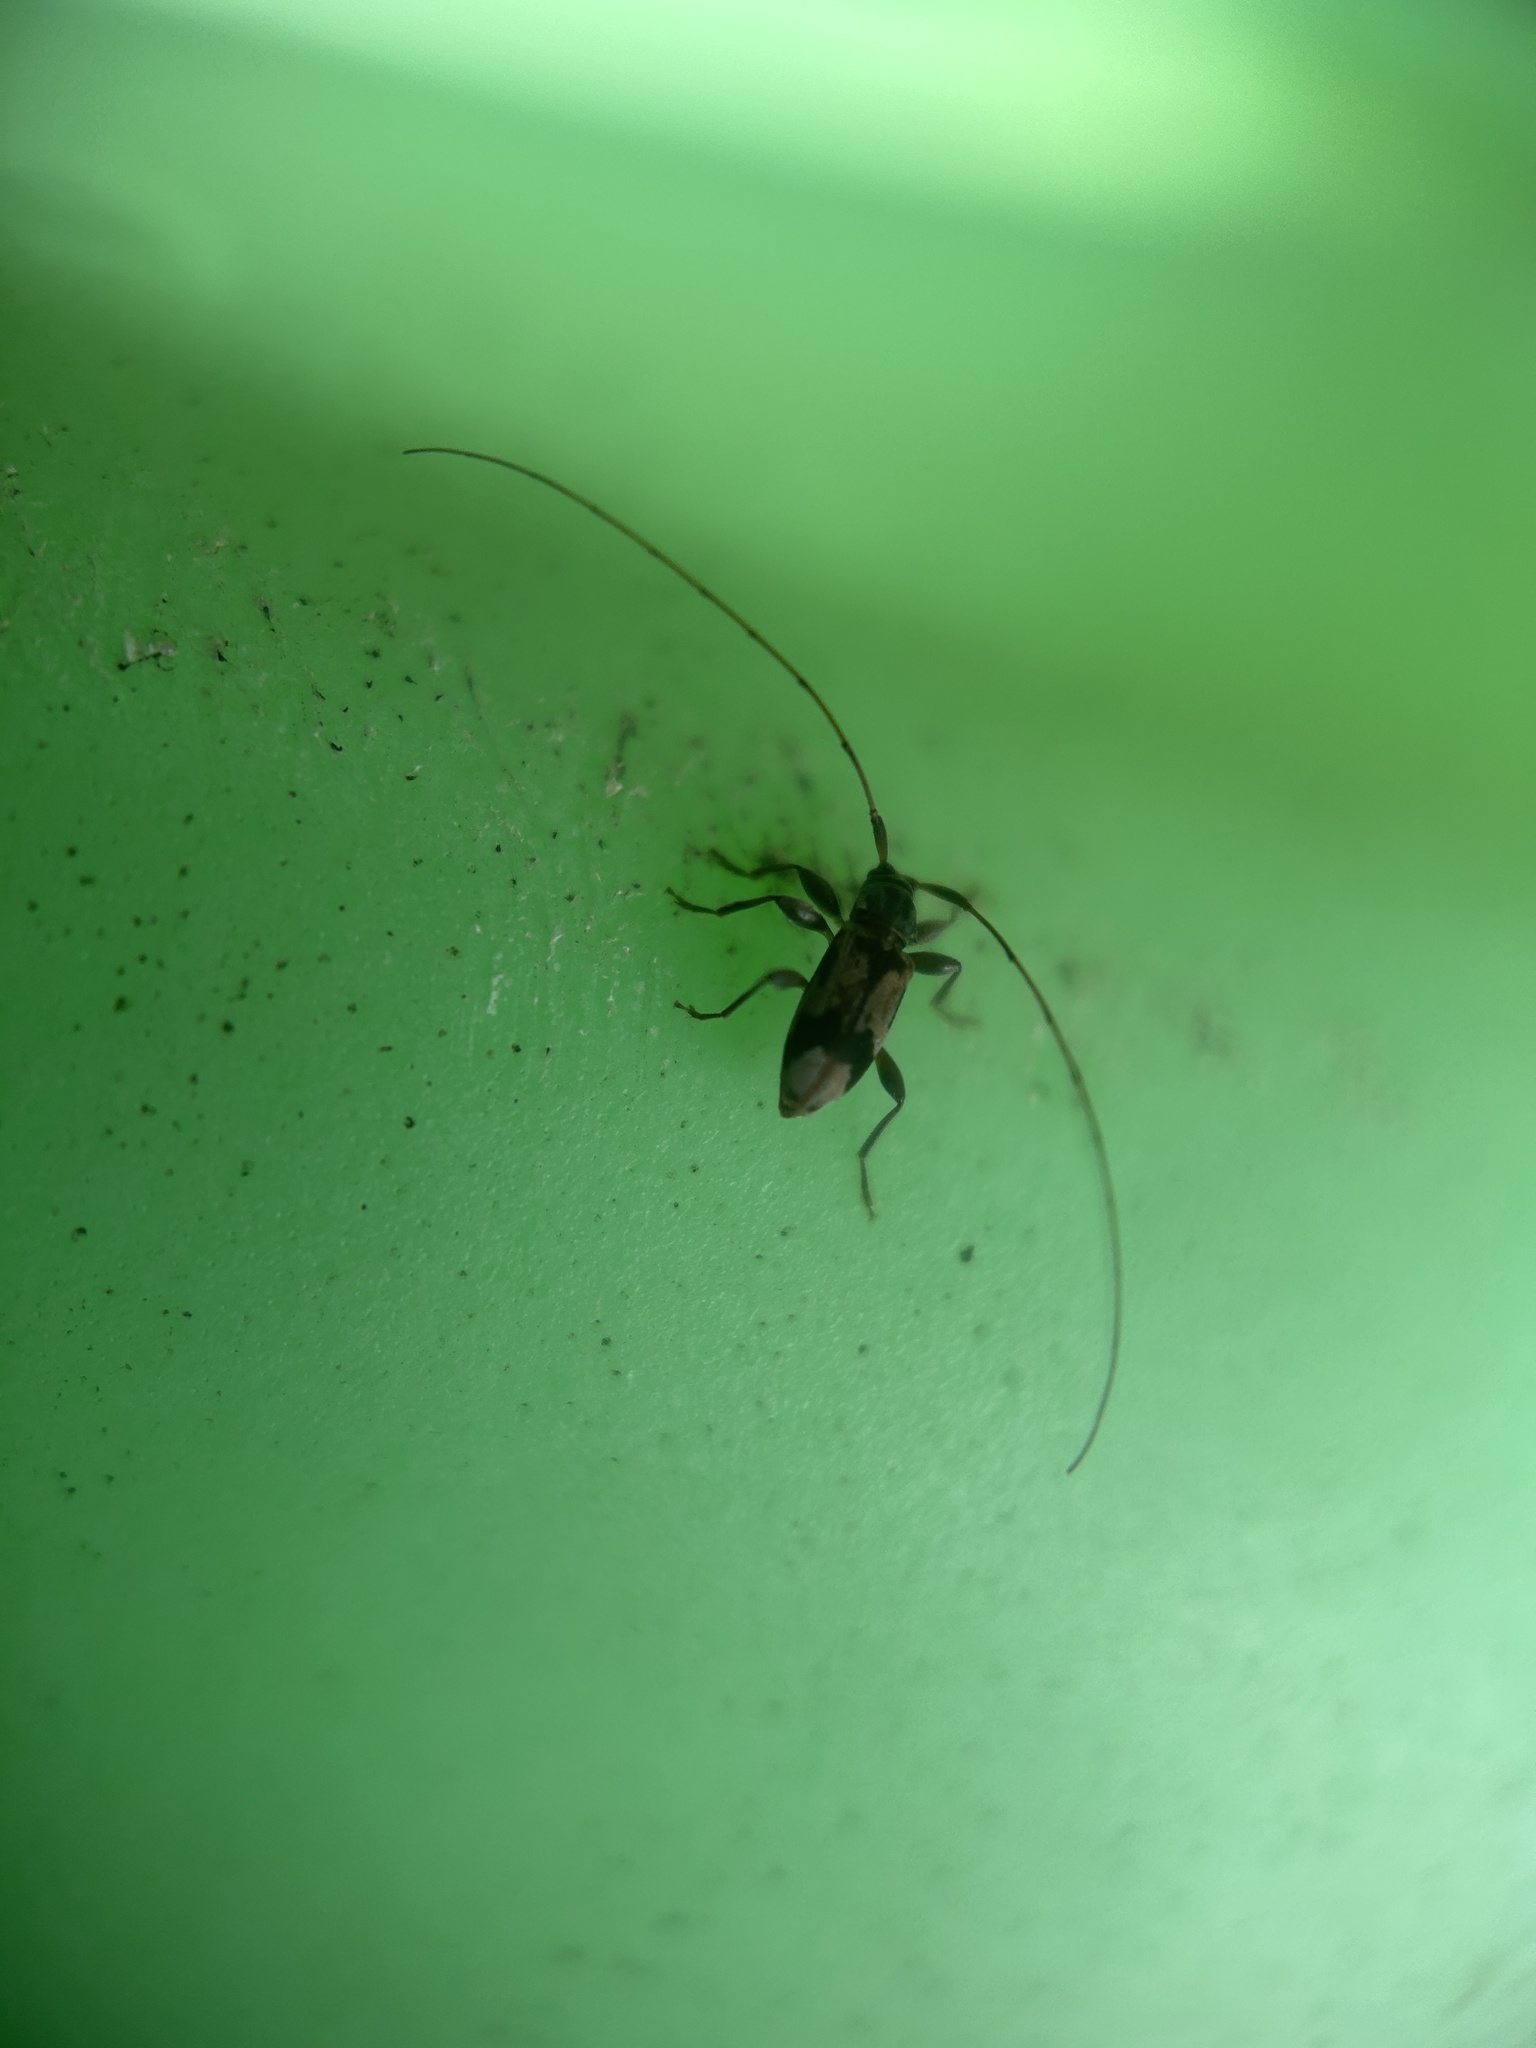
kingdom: Animalia
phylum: Arthropoda
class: Insecta
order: Coleoptera
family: Cerambycidae
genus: Urgleptes
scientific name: Urgleptes querci
